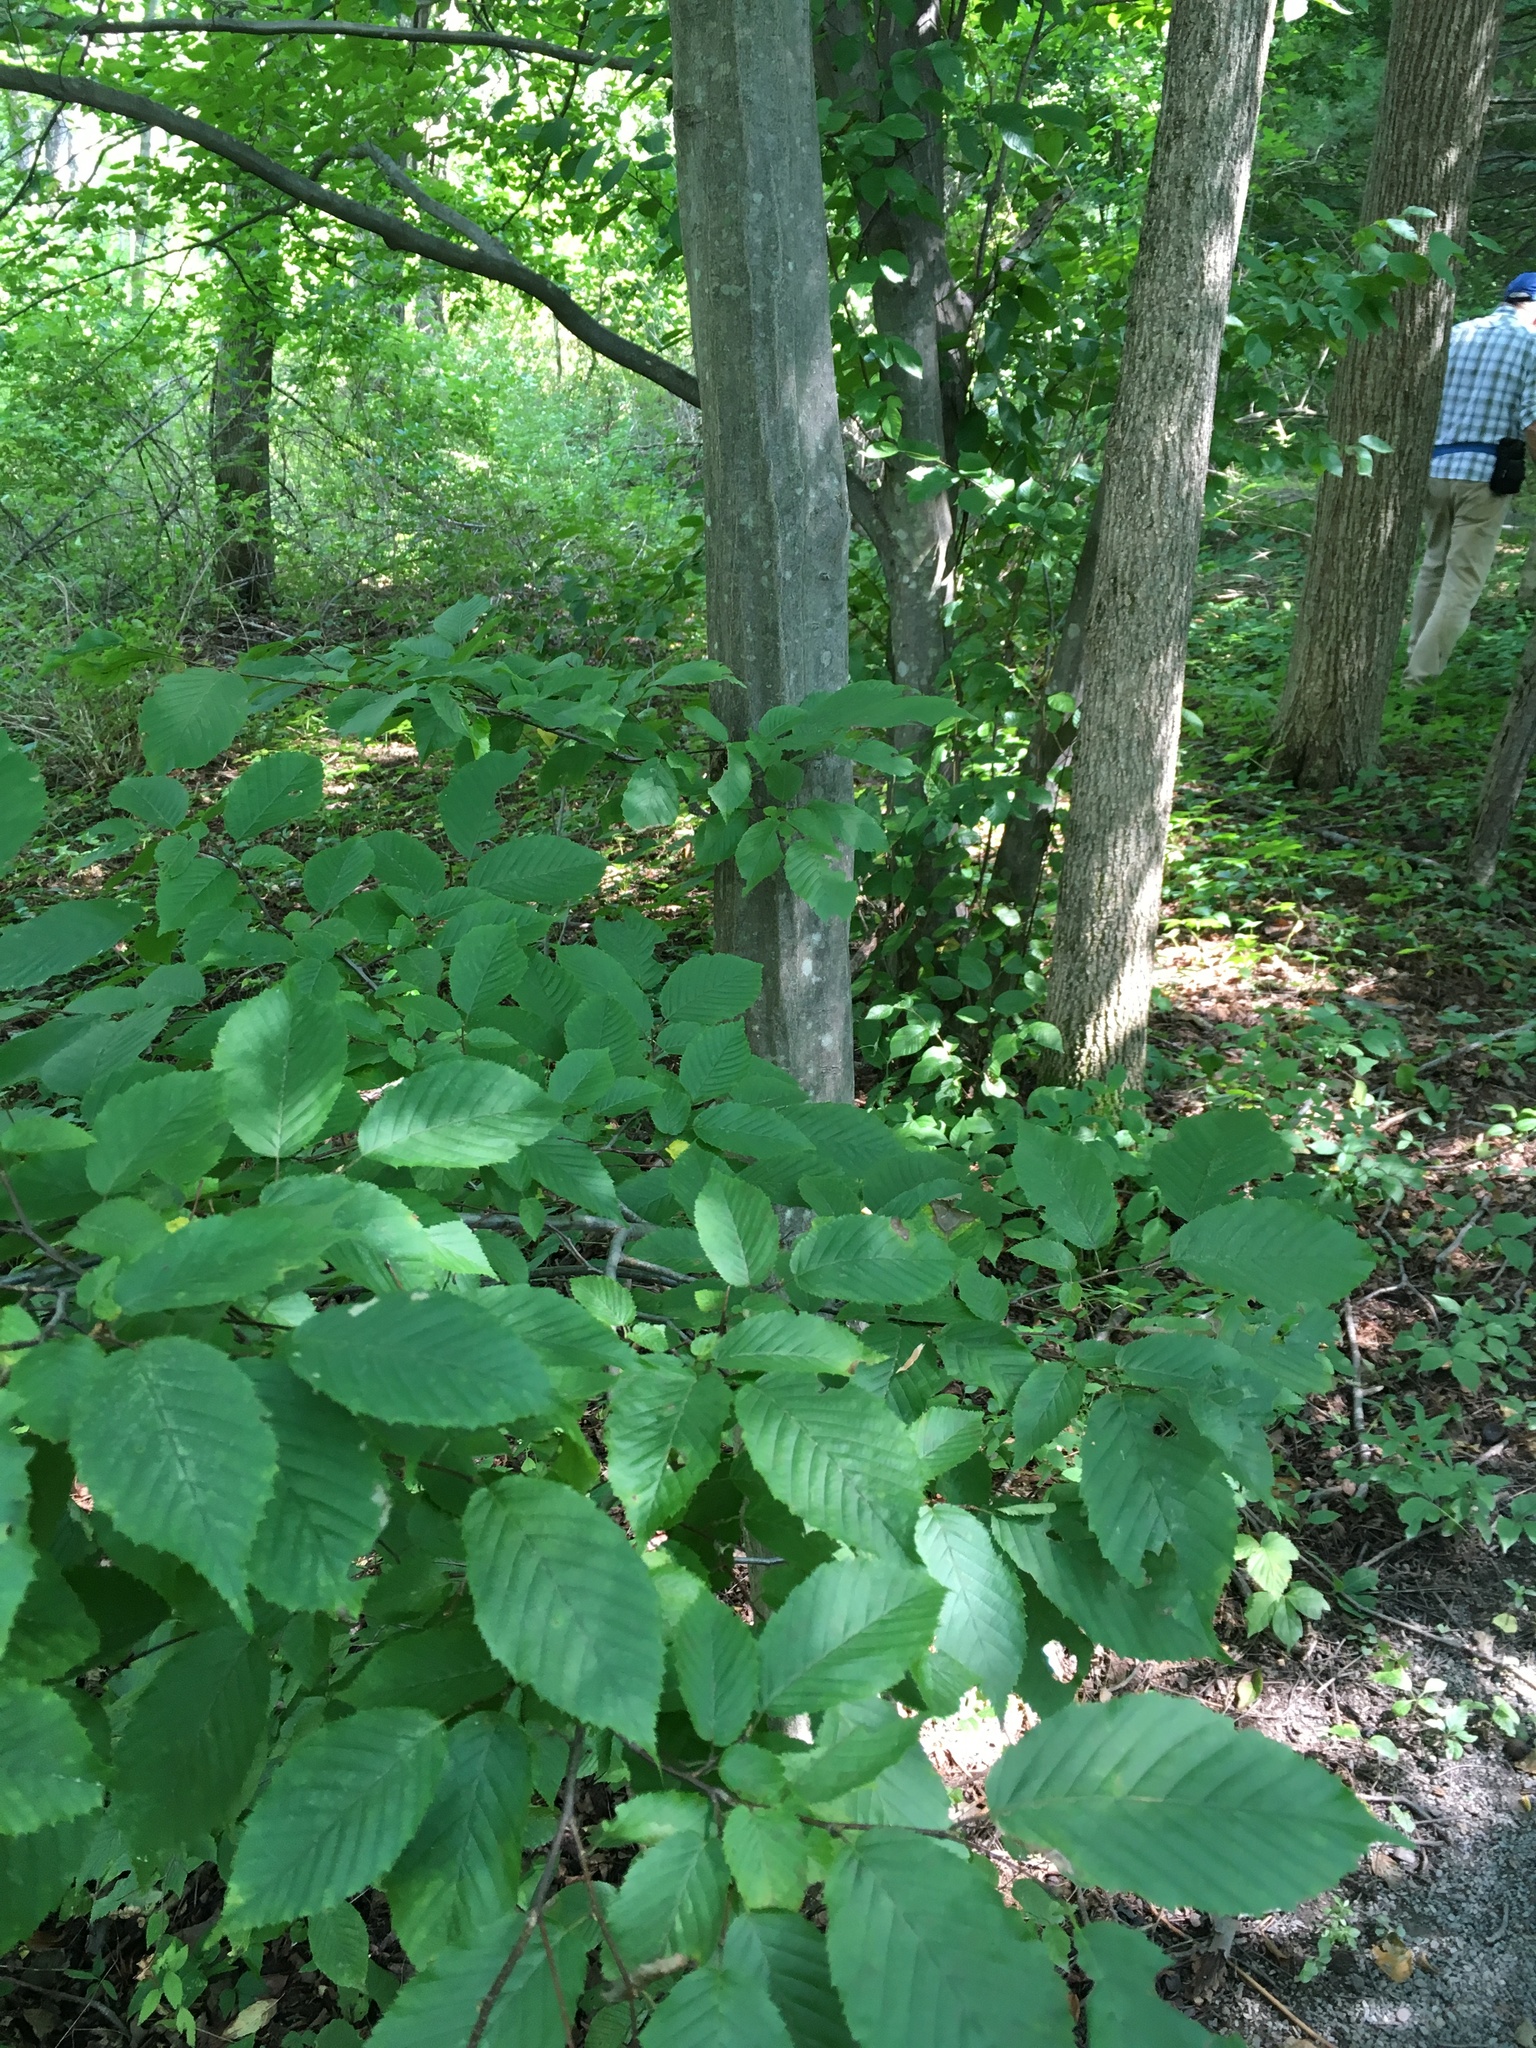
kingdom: Plantae
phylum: Tracheophyta
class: Magnoliopsida
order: Fagales
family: Betulaceae
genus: Carpinus
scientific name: Carpinus caroliniana
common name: American hornbeam
